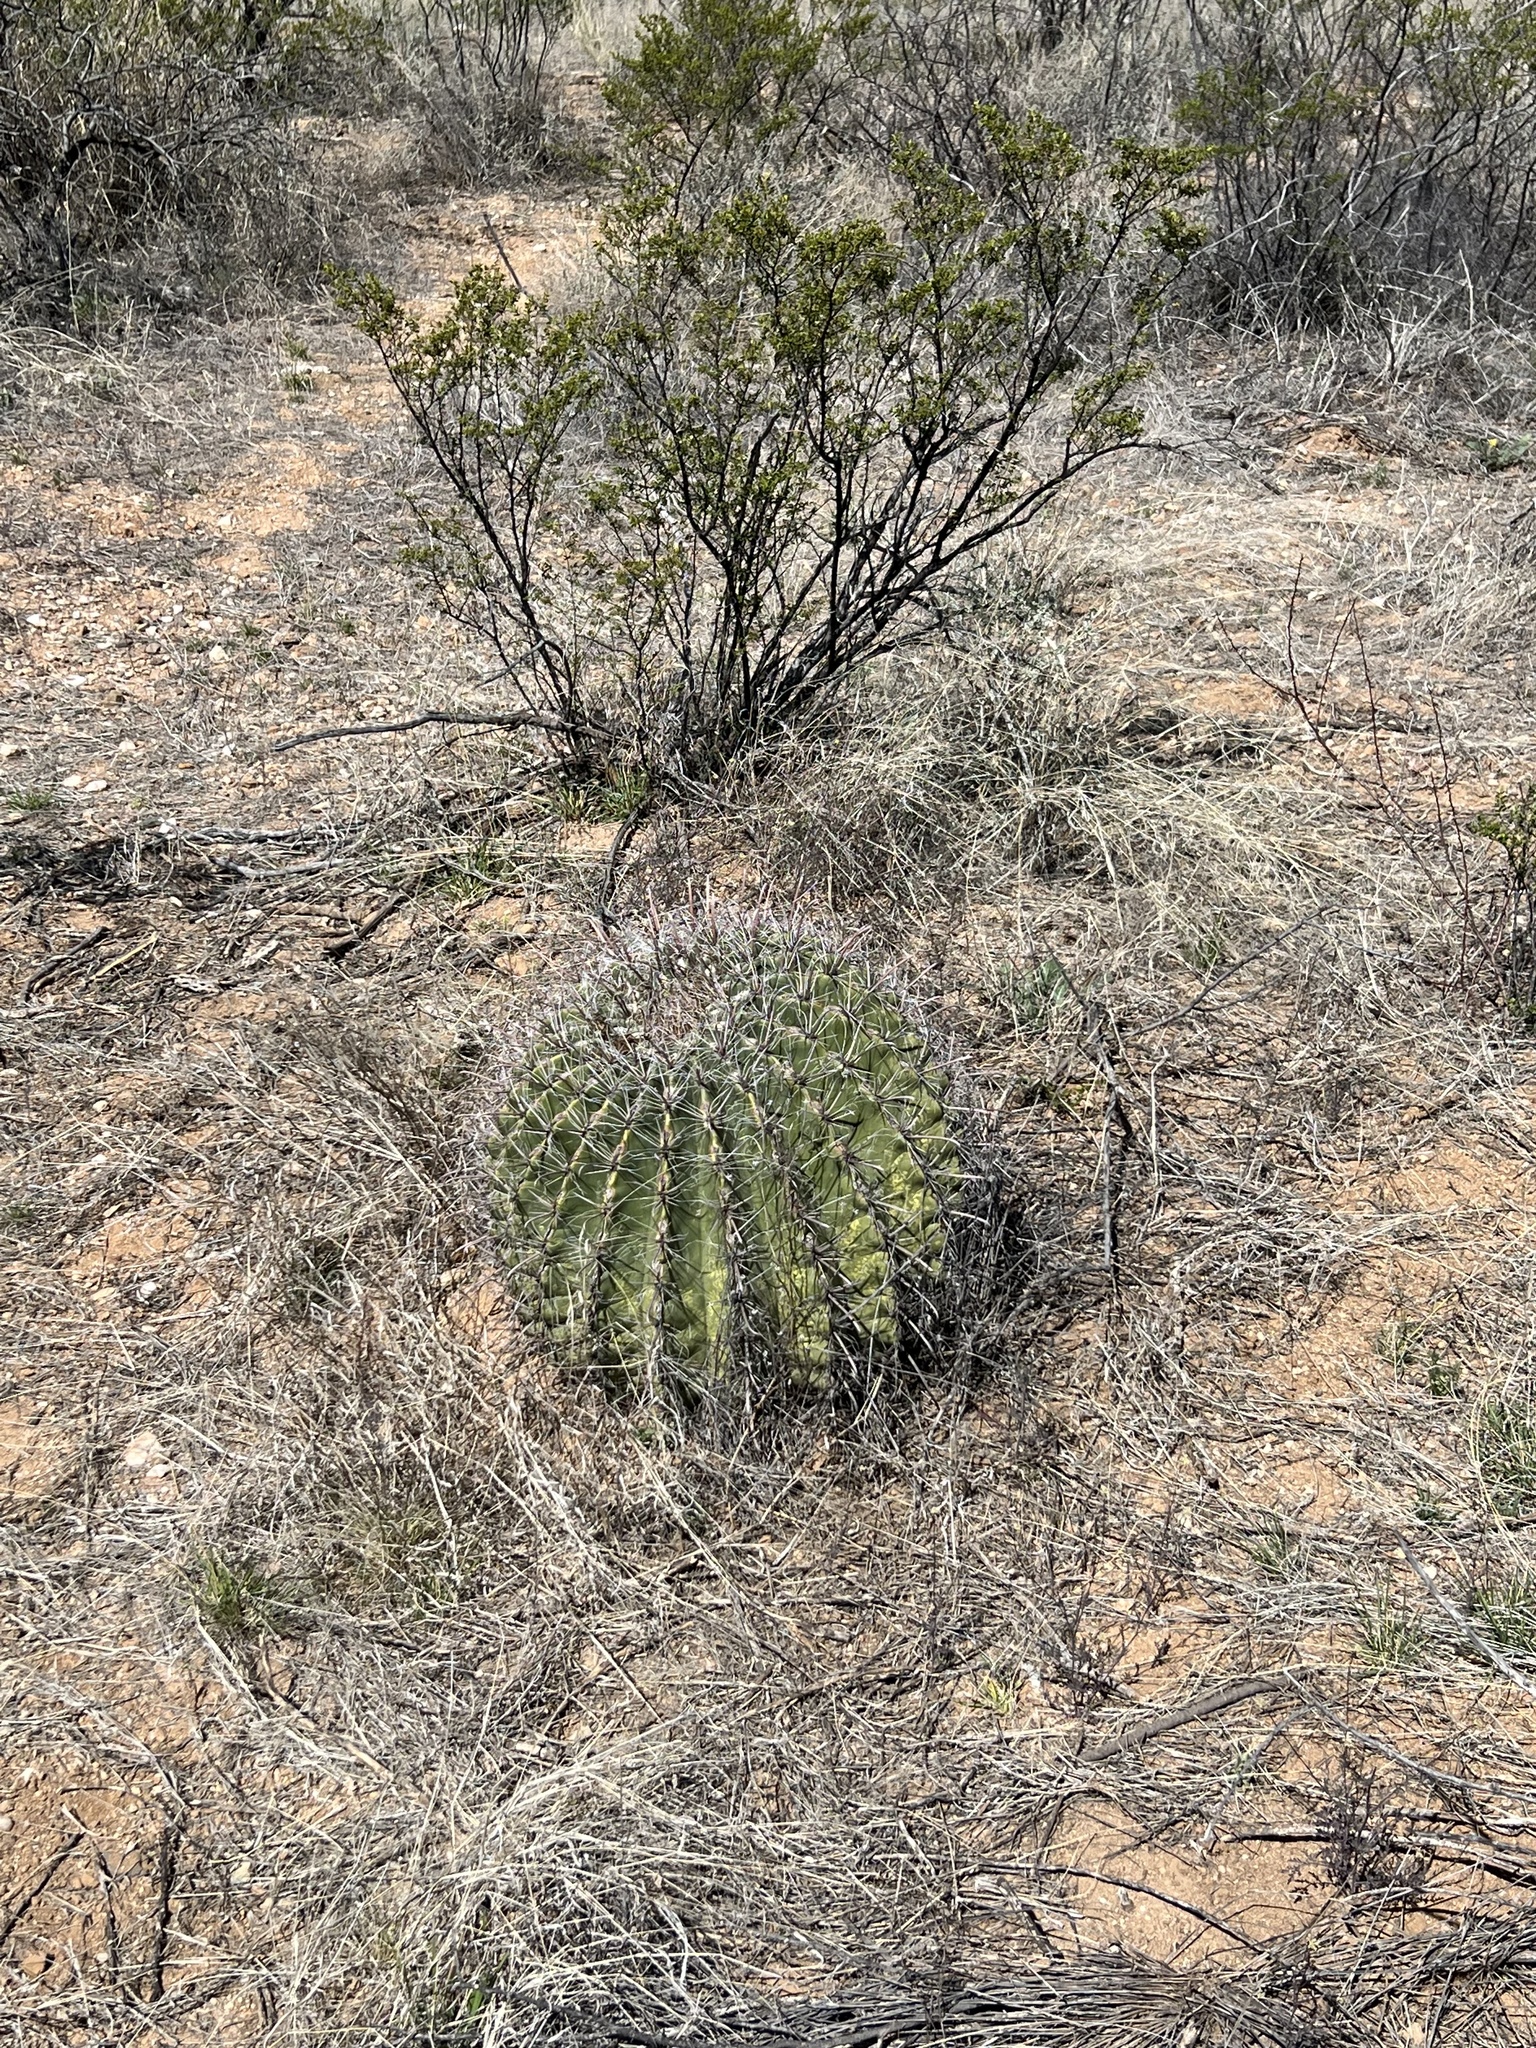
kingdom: Plantae
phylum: Tracheophyta
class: Magnoliopsida
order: Caryophyllales
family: Cactaceae
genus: Ferocactus
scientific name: Ferocactus wislizeni
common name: Candy barrel cactus
